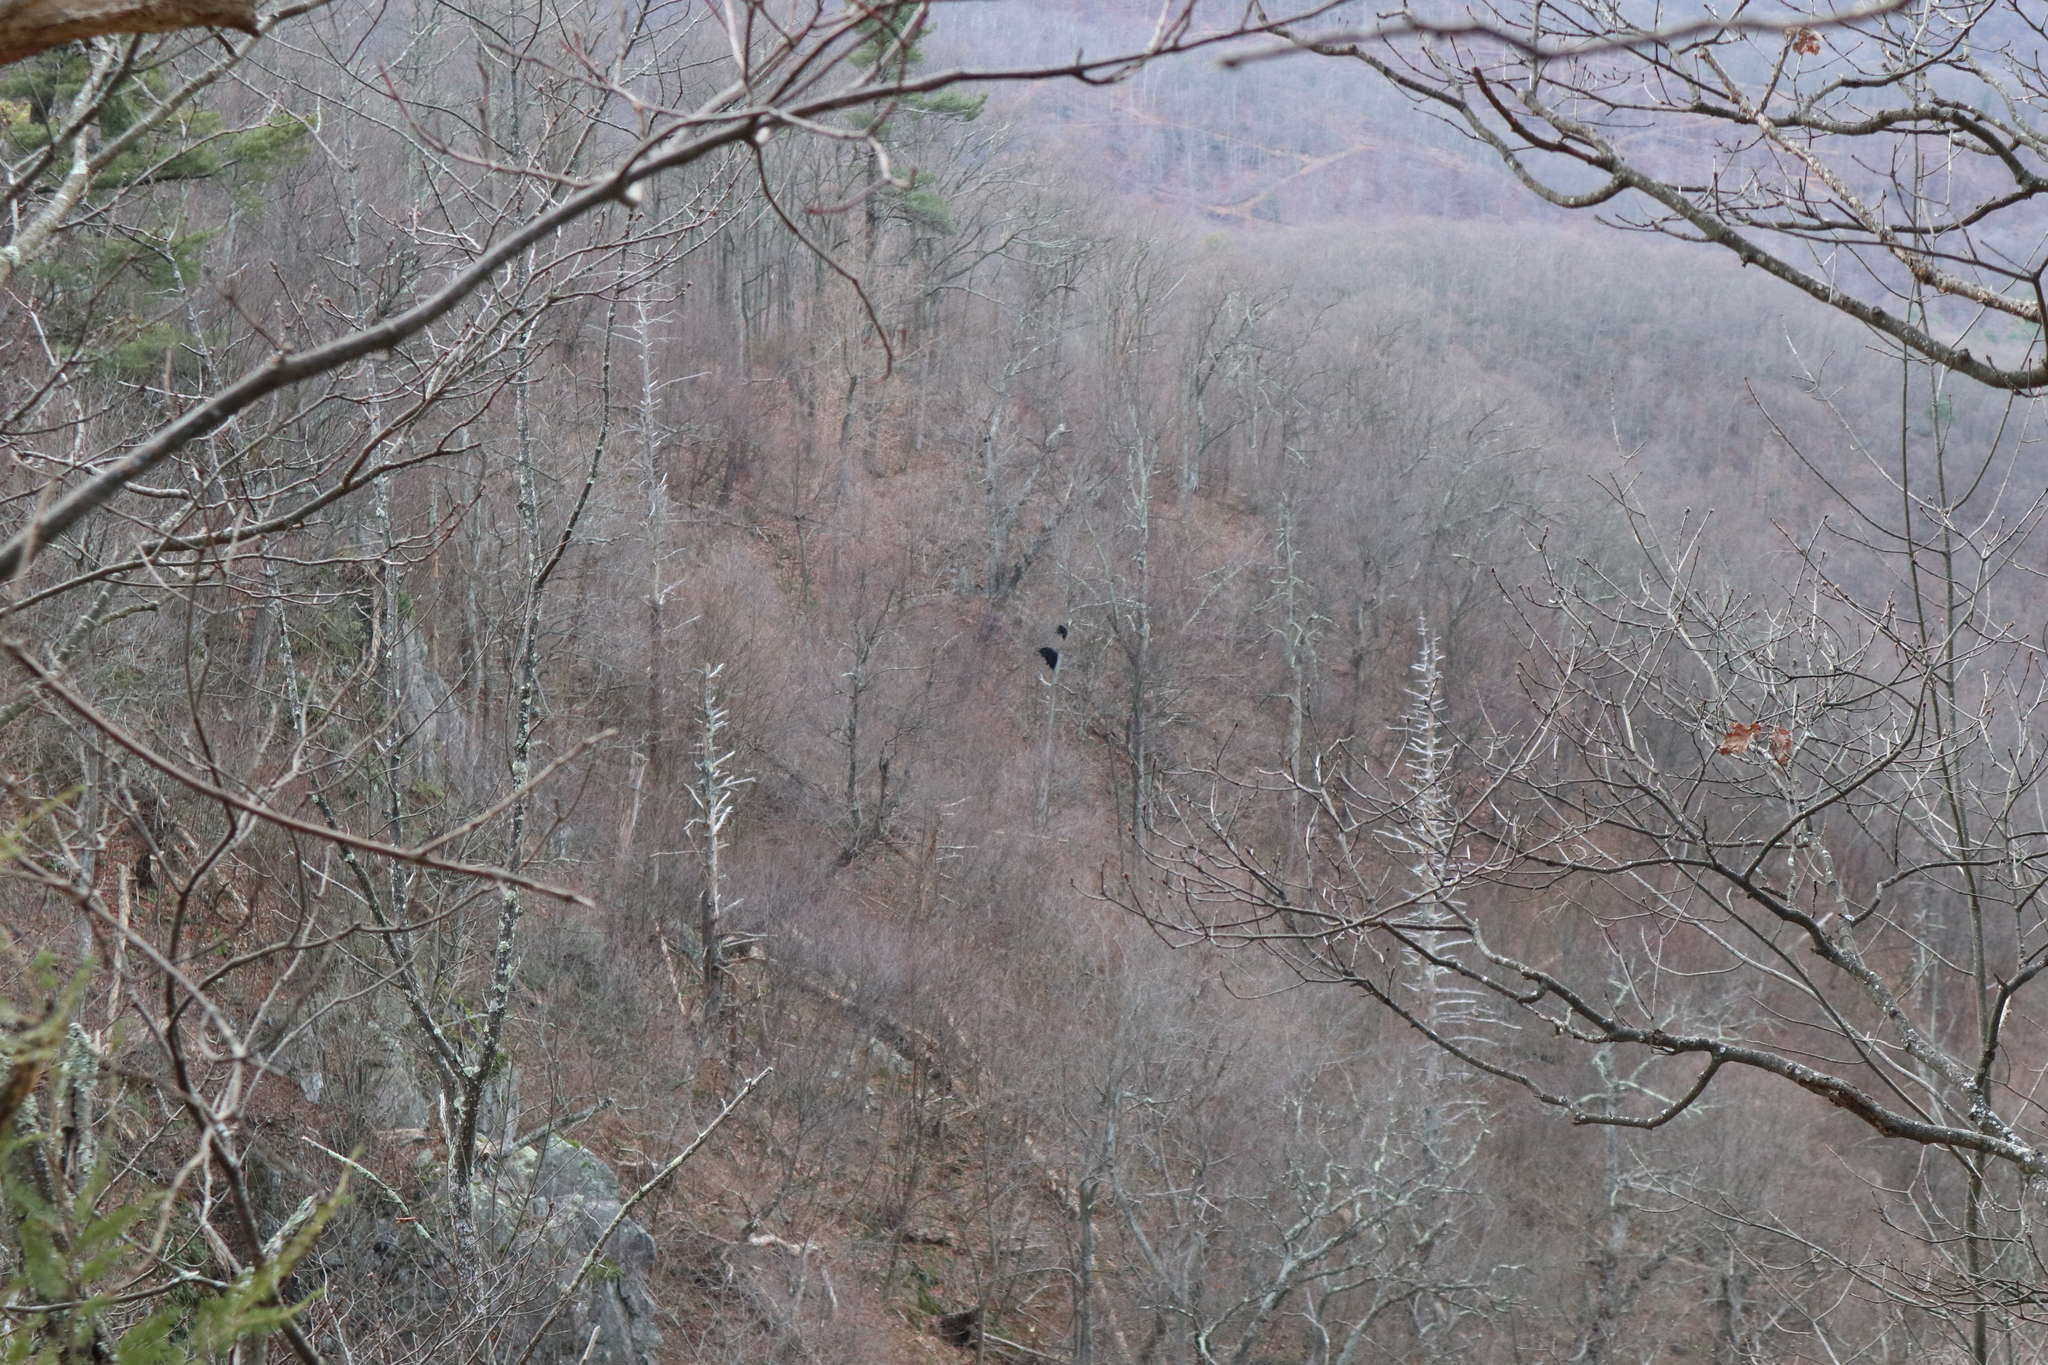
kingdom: Animalia
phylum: Chordata
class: Mammalia
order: Carnivora
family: Ursidae
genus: Ursus
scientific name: Ursus americanus
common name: American black bear
